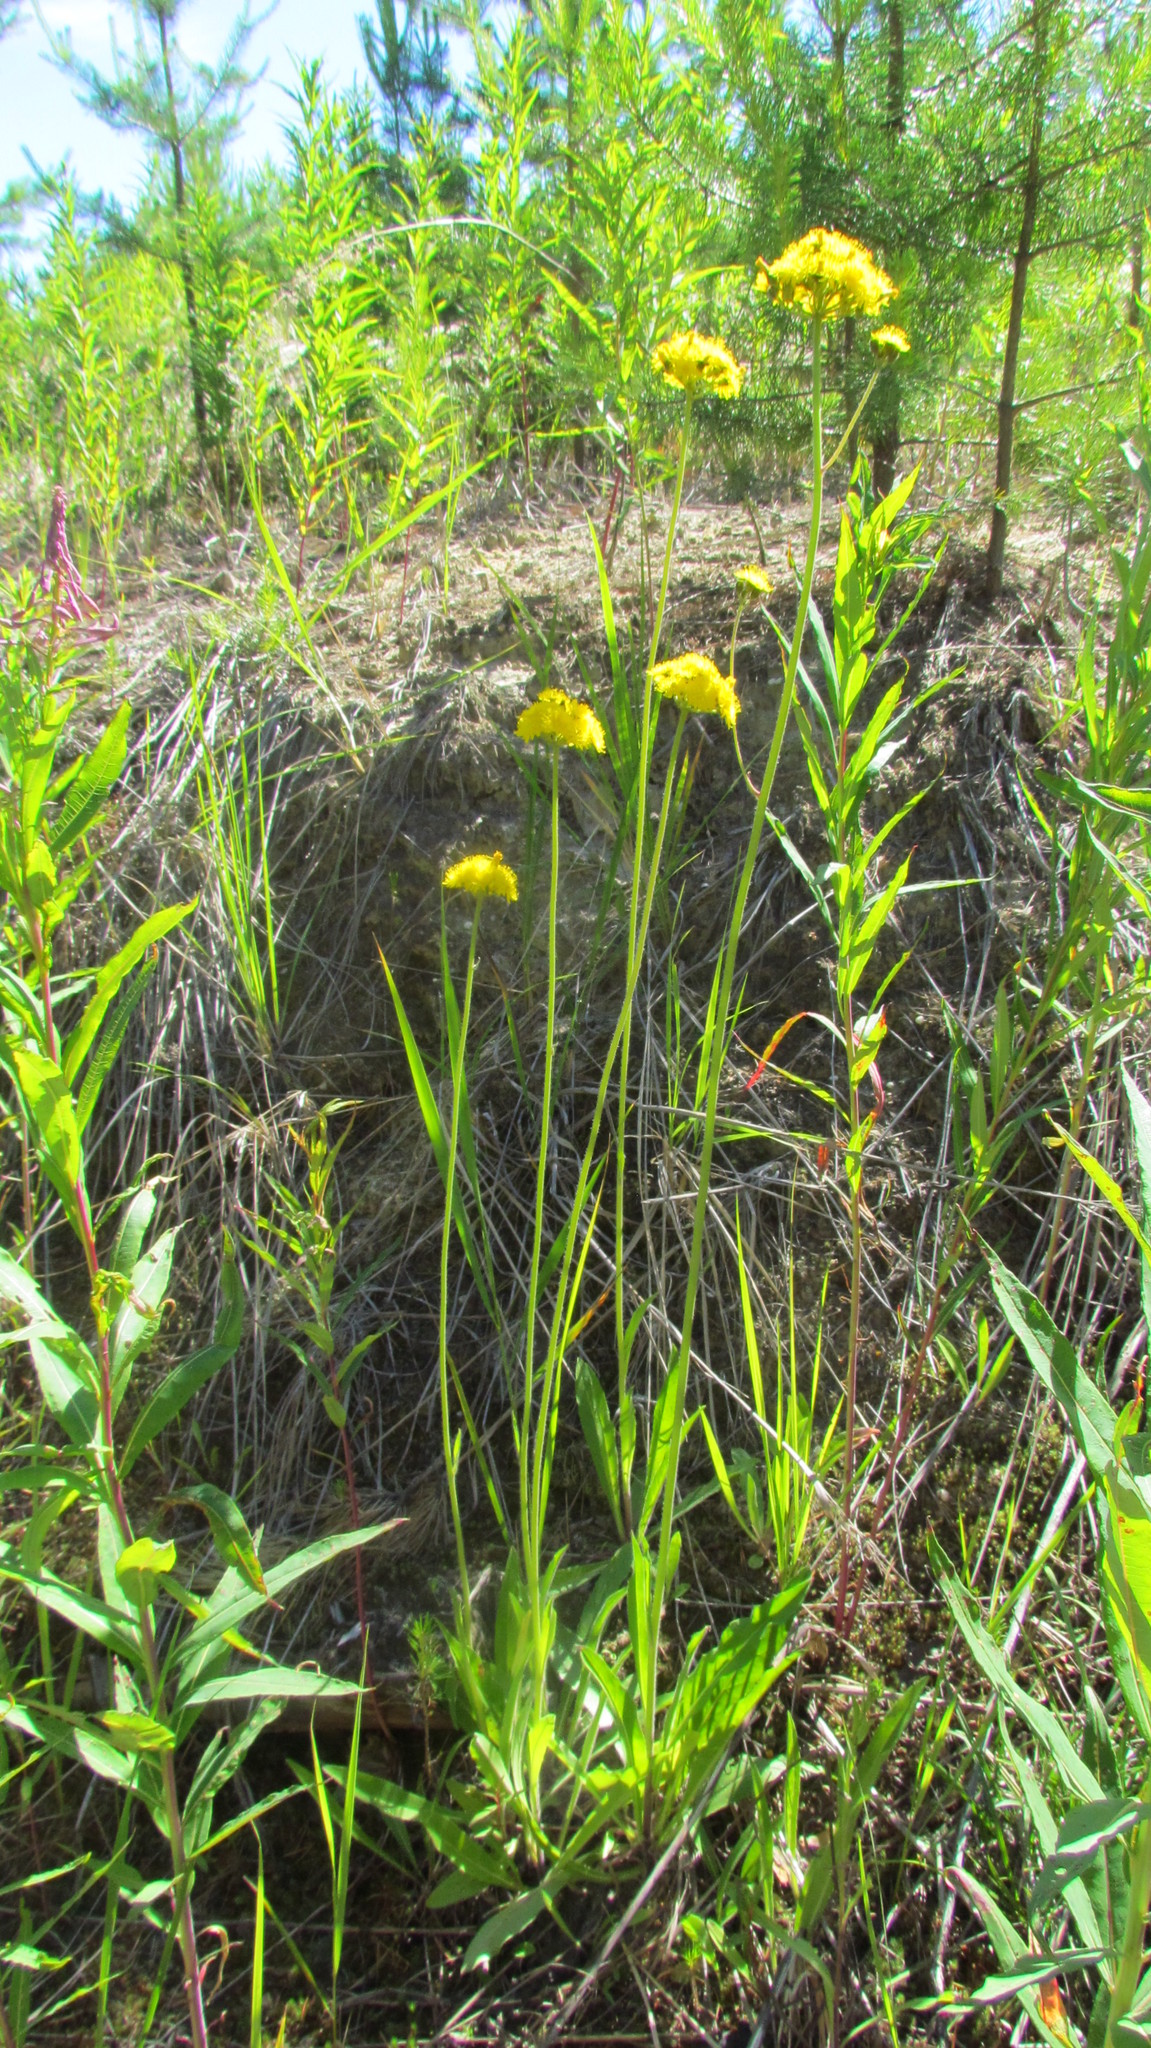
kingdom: Plantae
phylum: Tracheophyta
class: Magnoliopsida
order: Asterales
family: Asteraceae
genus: Pilosella
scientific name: Pilosella
